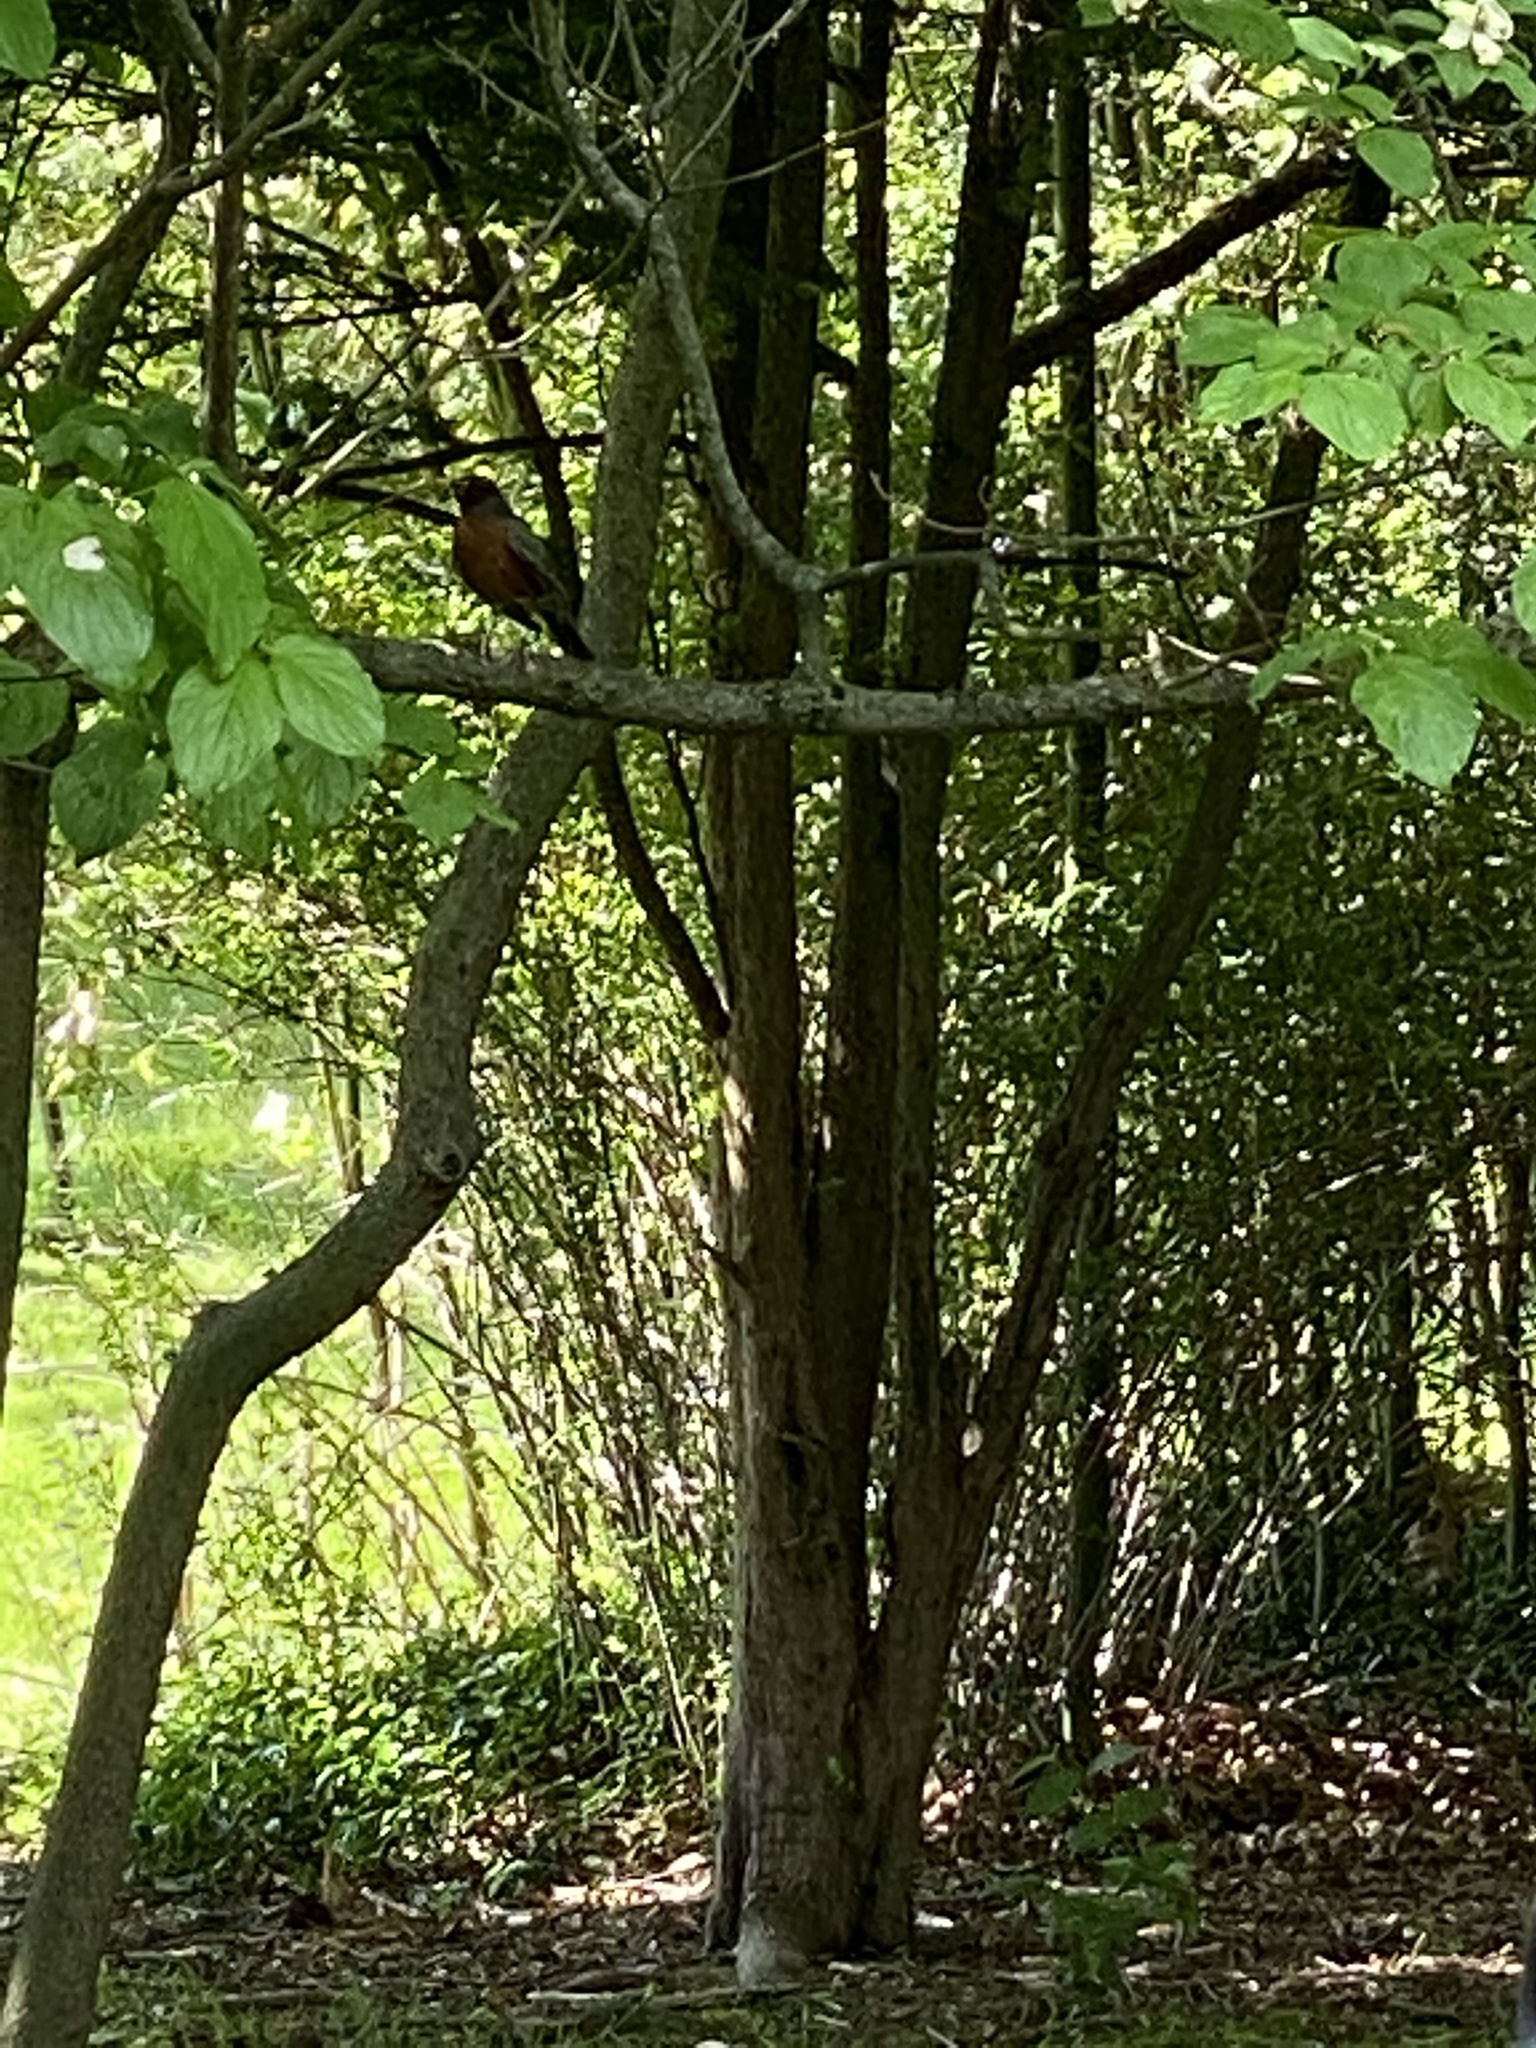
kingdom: Animalia
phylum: Chordata
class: Aves
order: Passeriformes
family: Turdidae
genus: Turdus
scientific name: Turdus migratorius
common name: American robin
